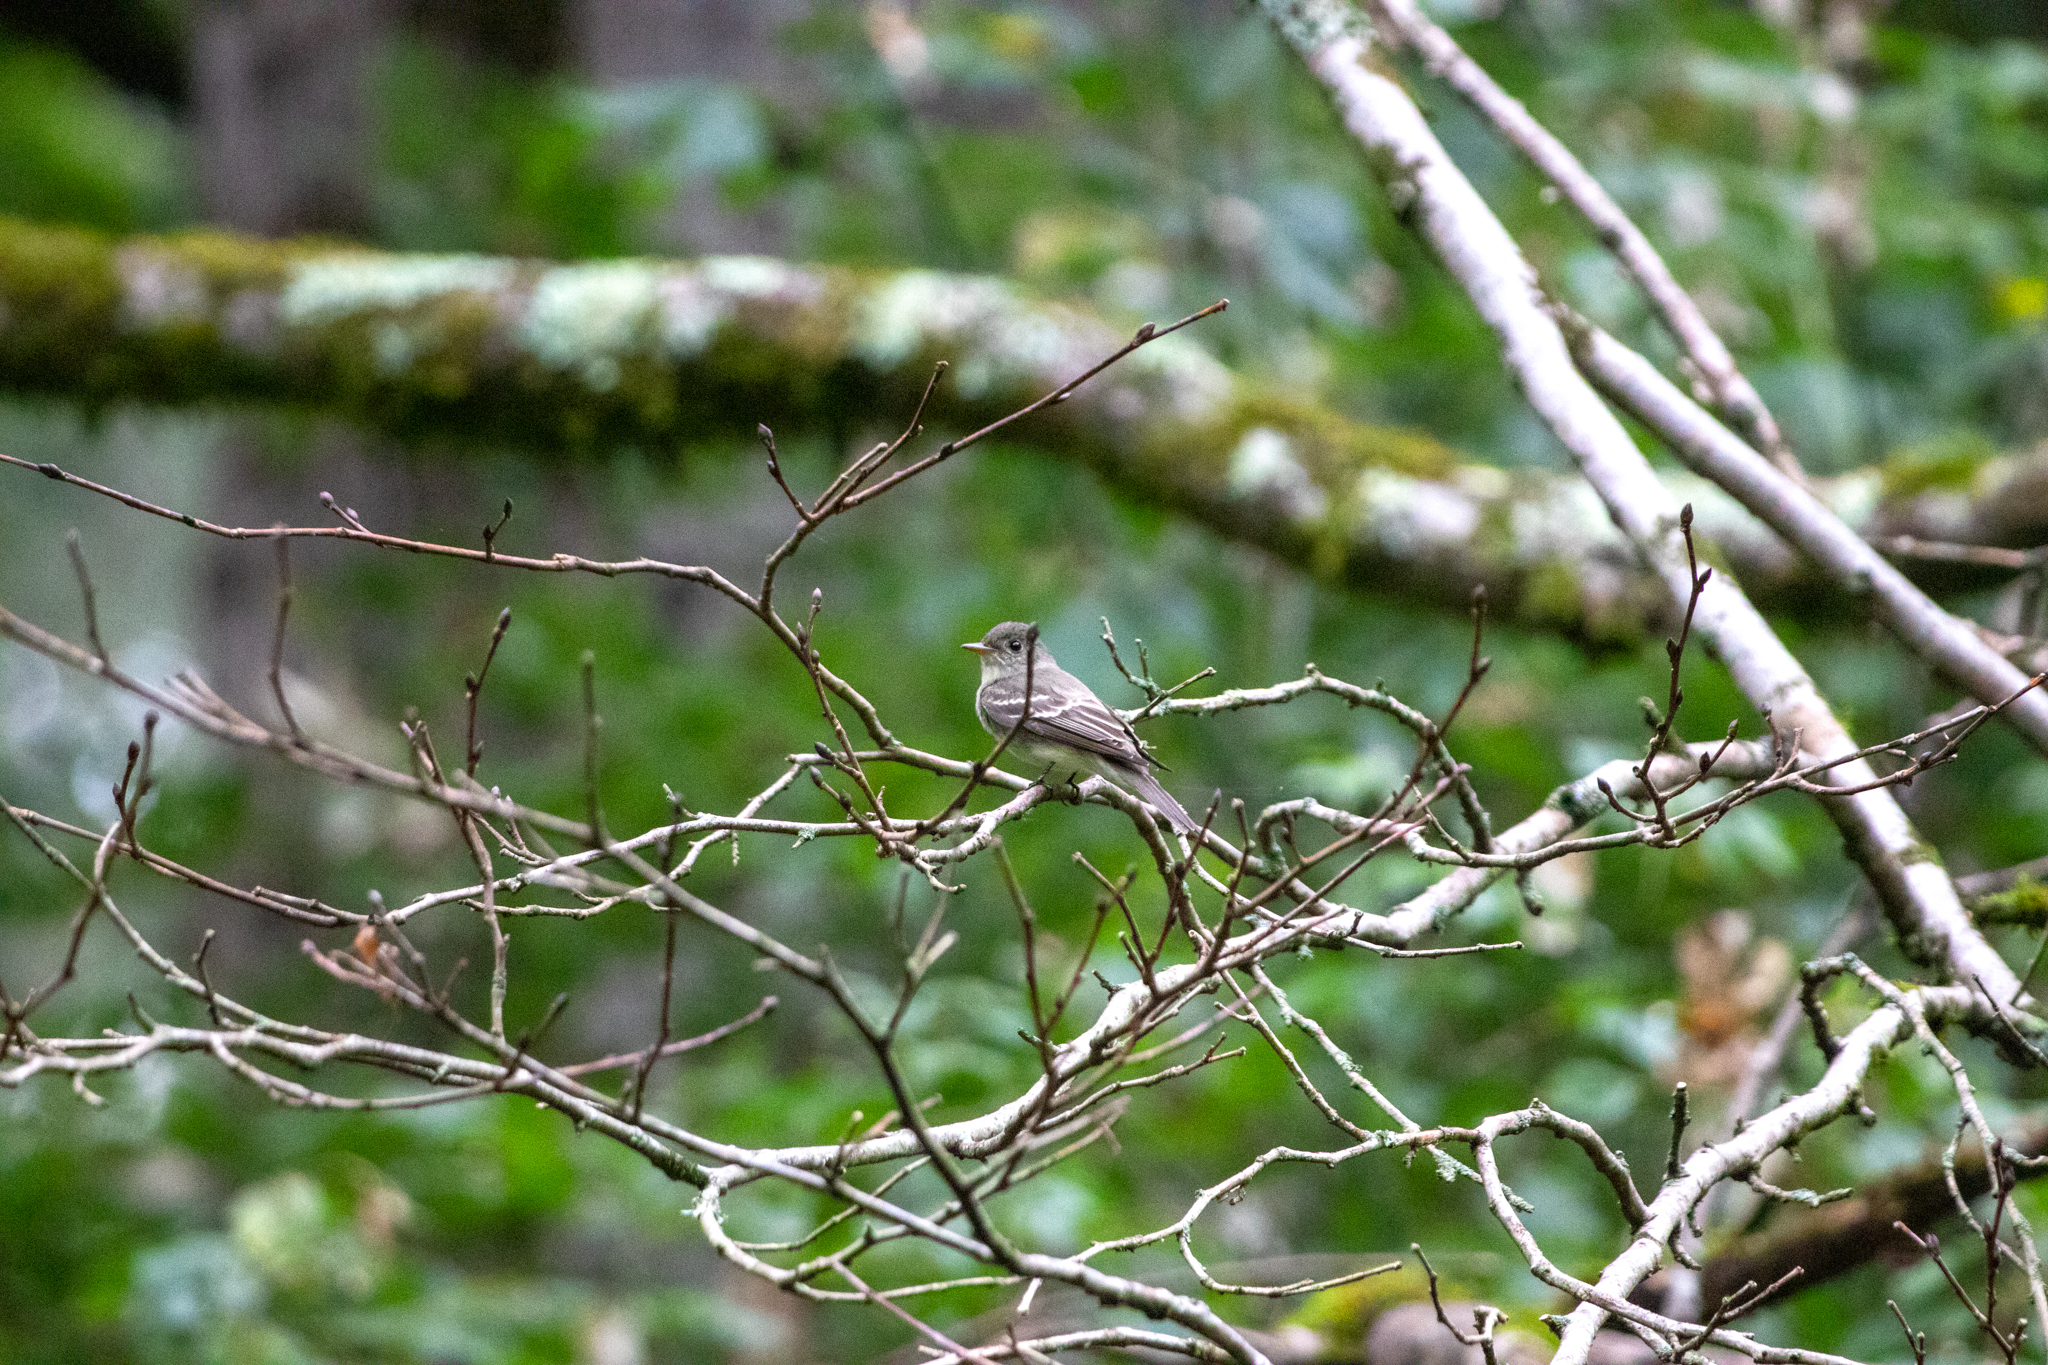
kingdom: Animalia
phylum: Chordata
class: Aves
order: Passeriformes
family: Tyrannidae
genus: Contopus
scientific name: Contopus virens
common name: Eastern wood-pewee
